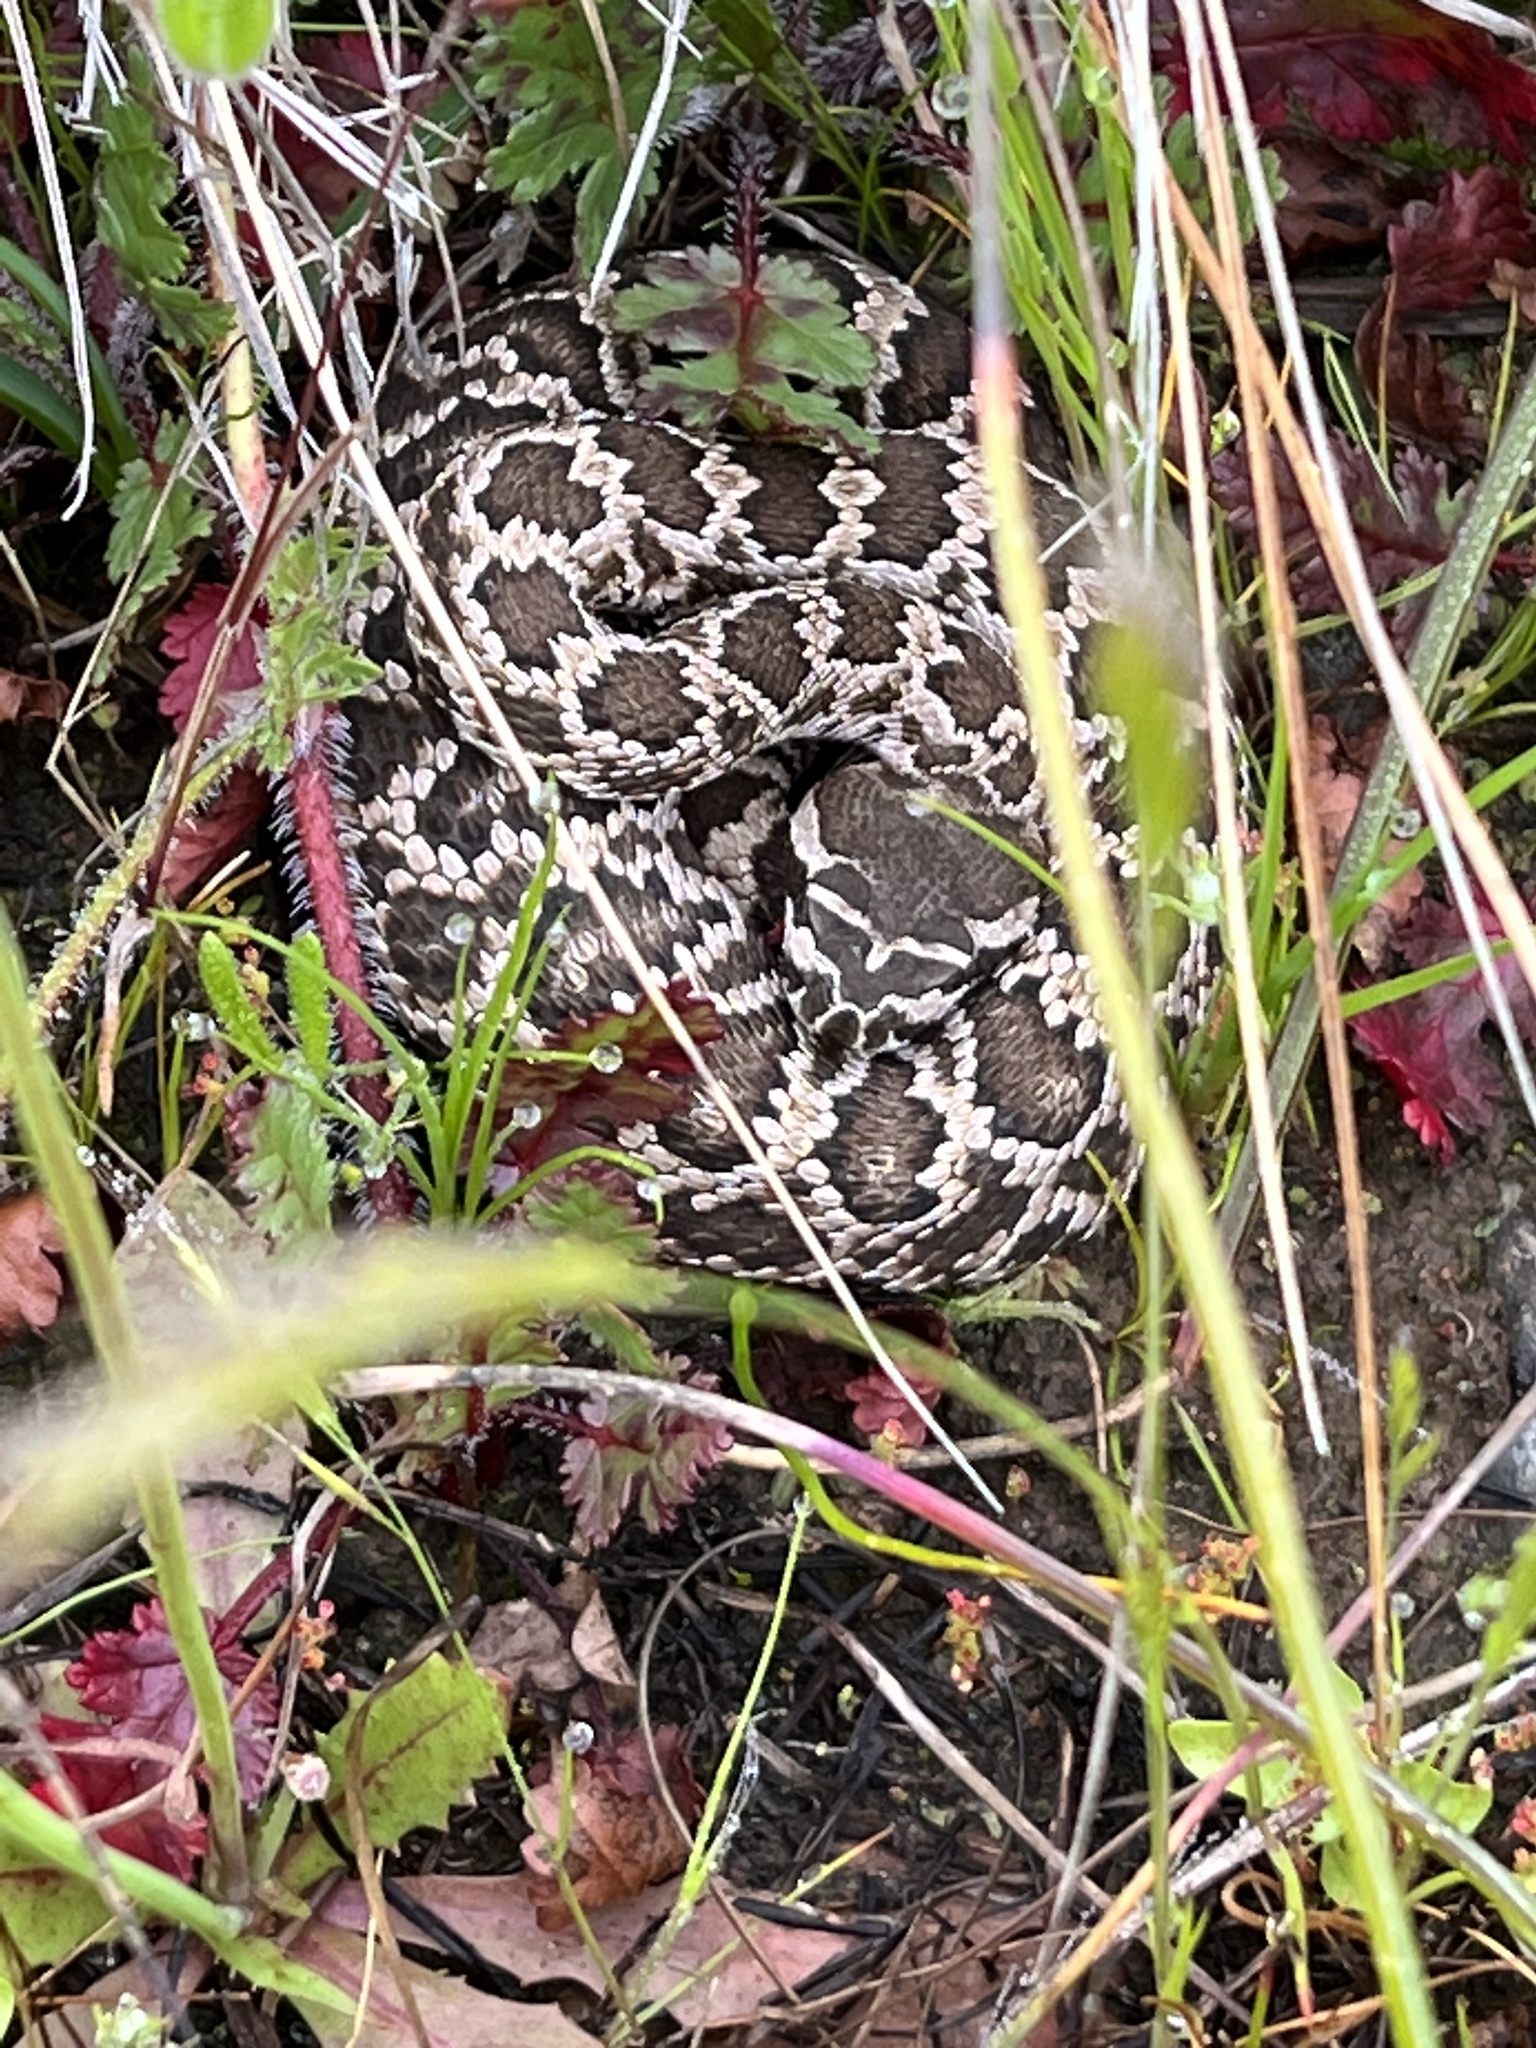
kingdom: Animalia
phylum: Chordata
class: Squamata
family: Viperidae
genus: Crotalus
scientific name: Crotalus oreganus
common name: Abyssus
